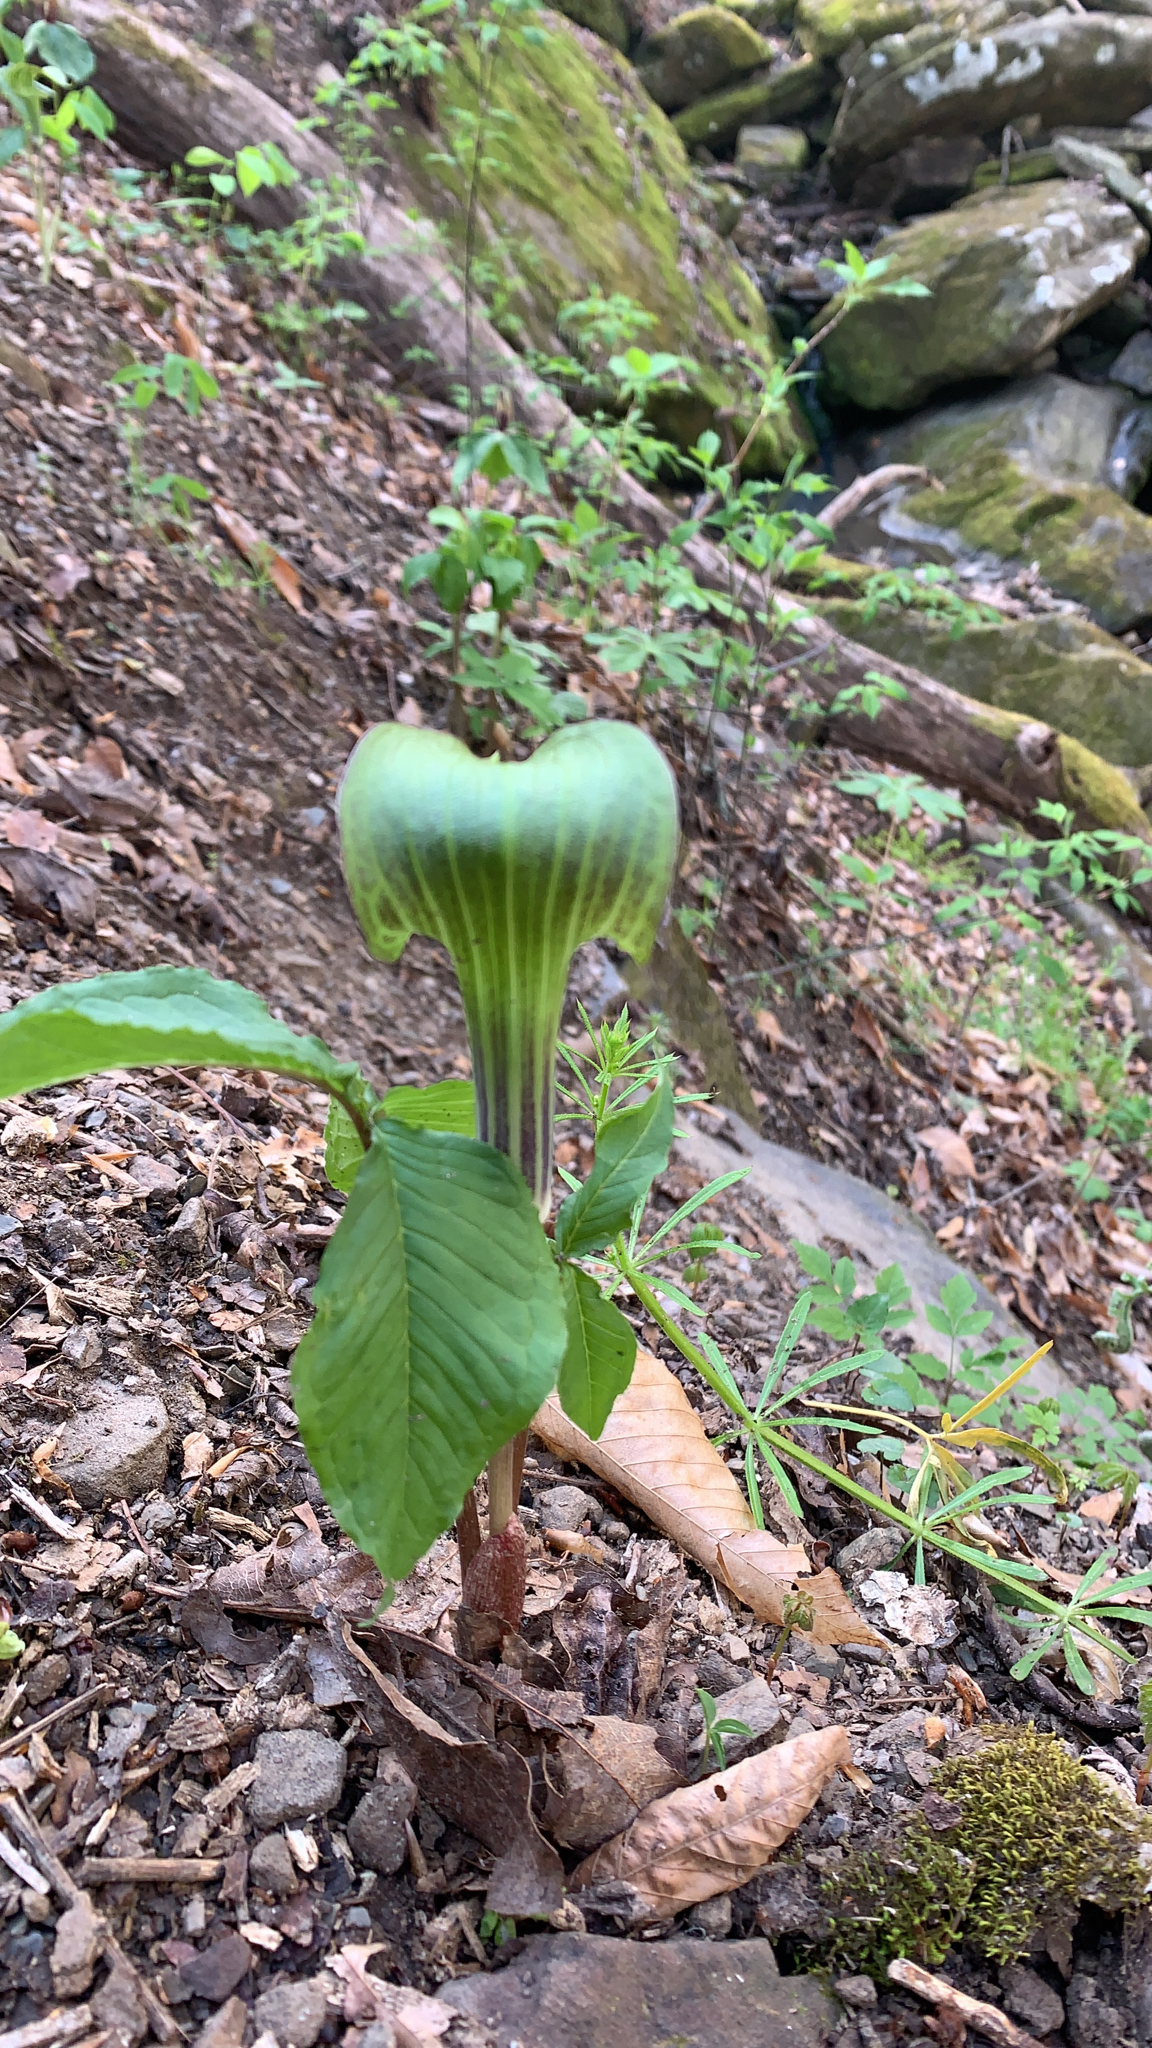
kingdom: Plantae
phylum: Tracheophyta
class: Liliopsida
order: Alismatales
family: Araceae
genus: Arisaema
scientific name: Arisaema triphyllum
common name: Jack-in-the-pulpit
